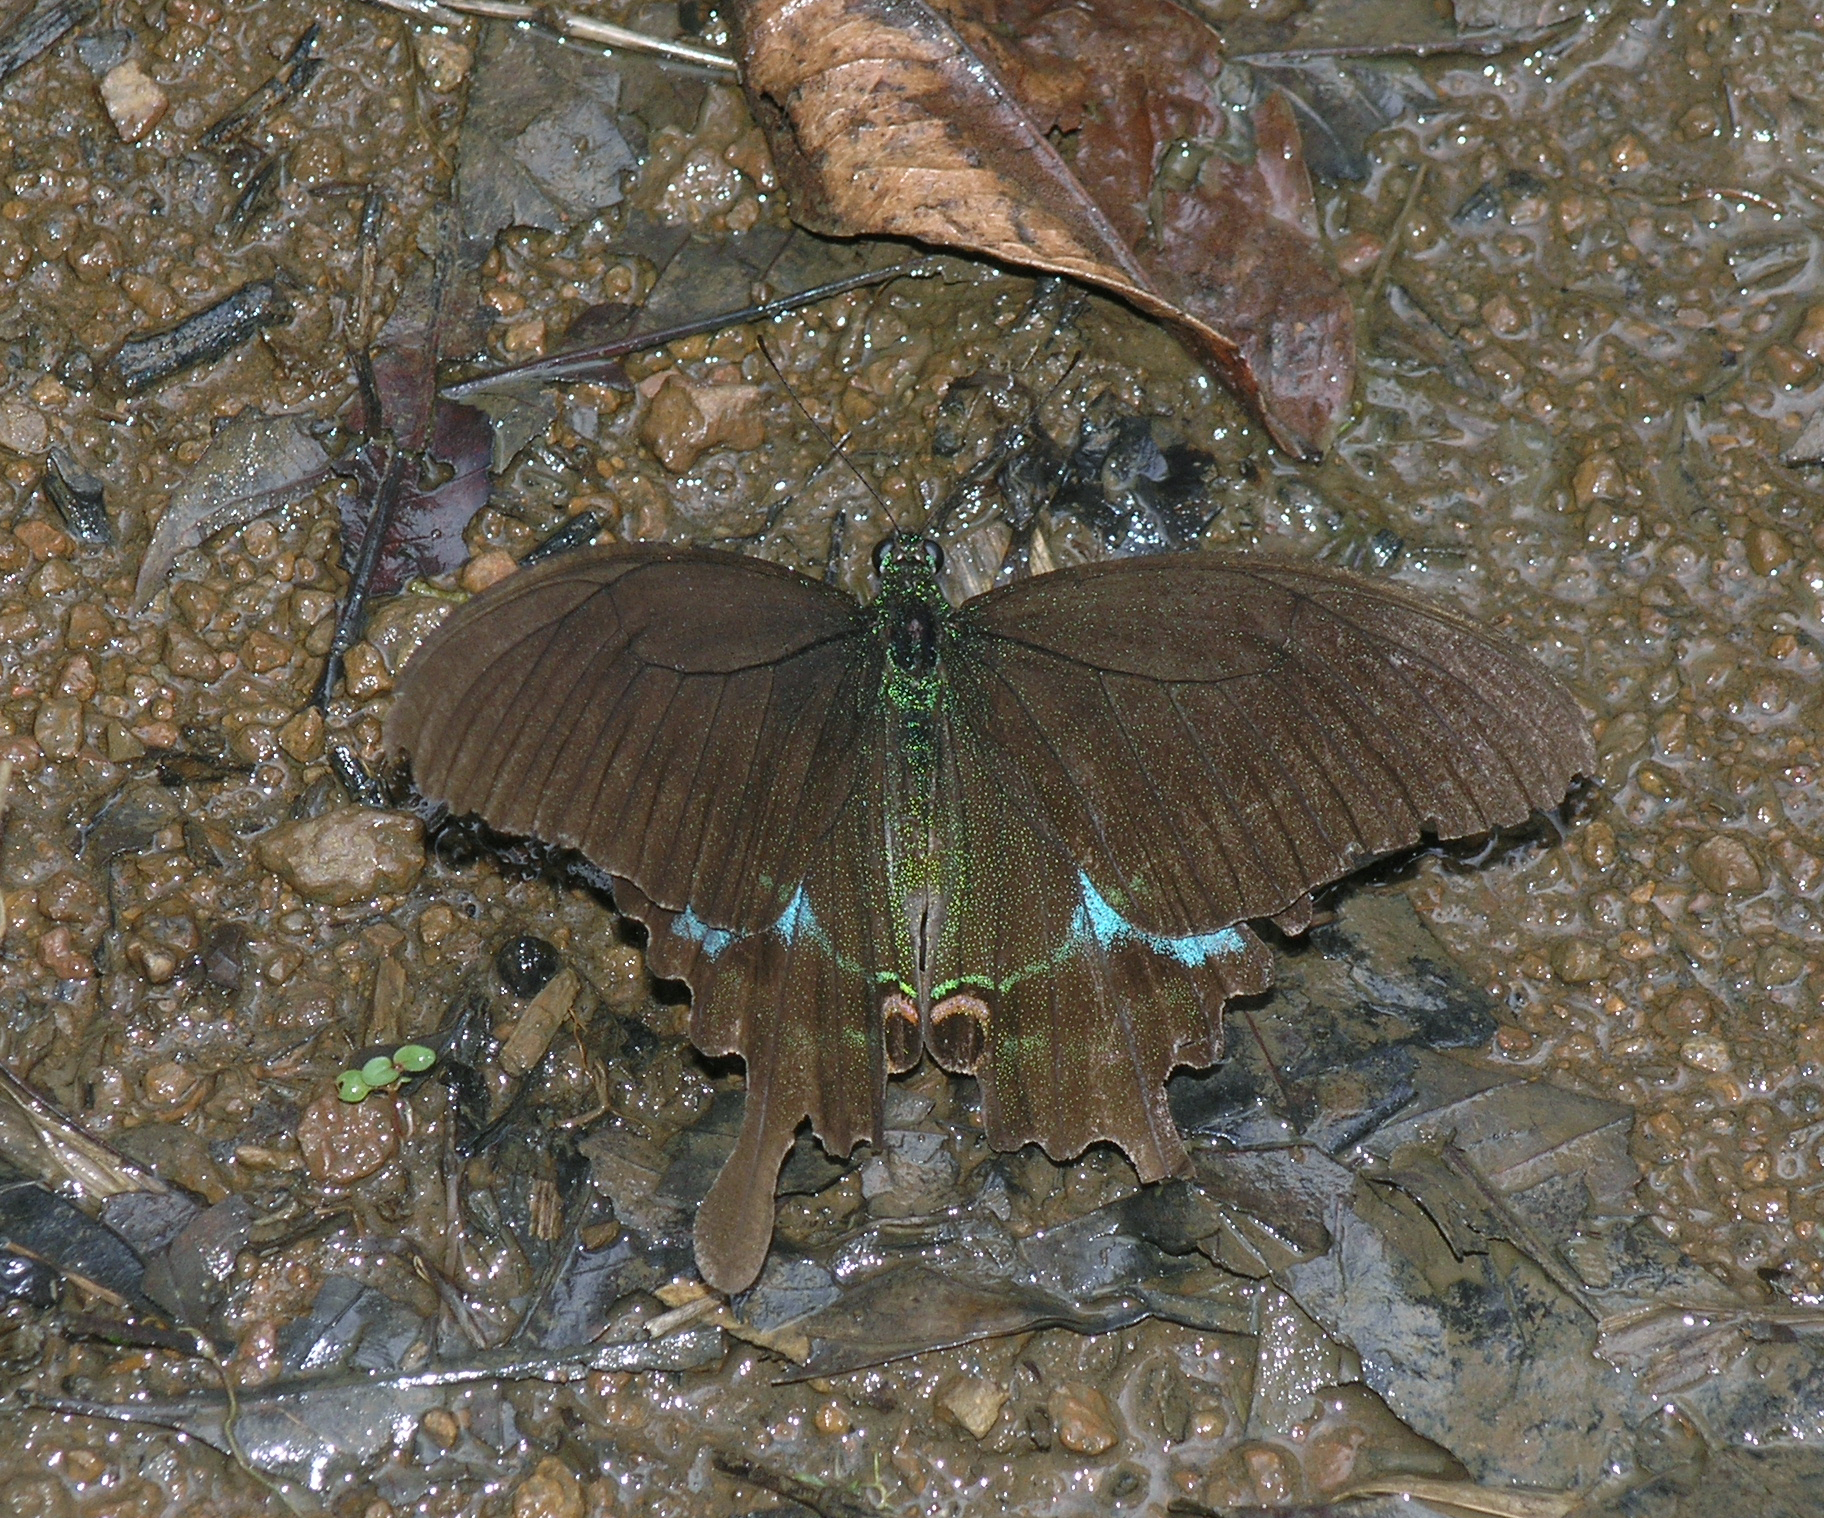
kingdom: Animalia
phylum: Arthropoda
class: Insecta
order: Lepidoptera
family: Papilionidae
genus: Papilio
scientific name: Papilio paris
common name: Paris peacock
